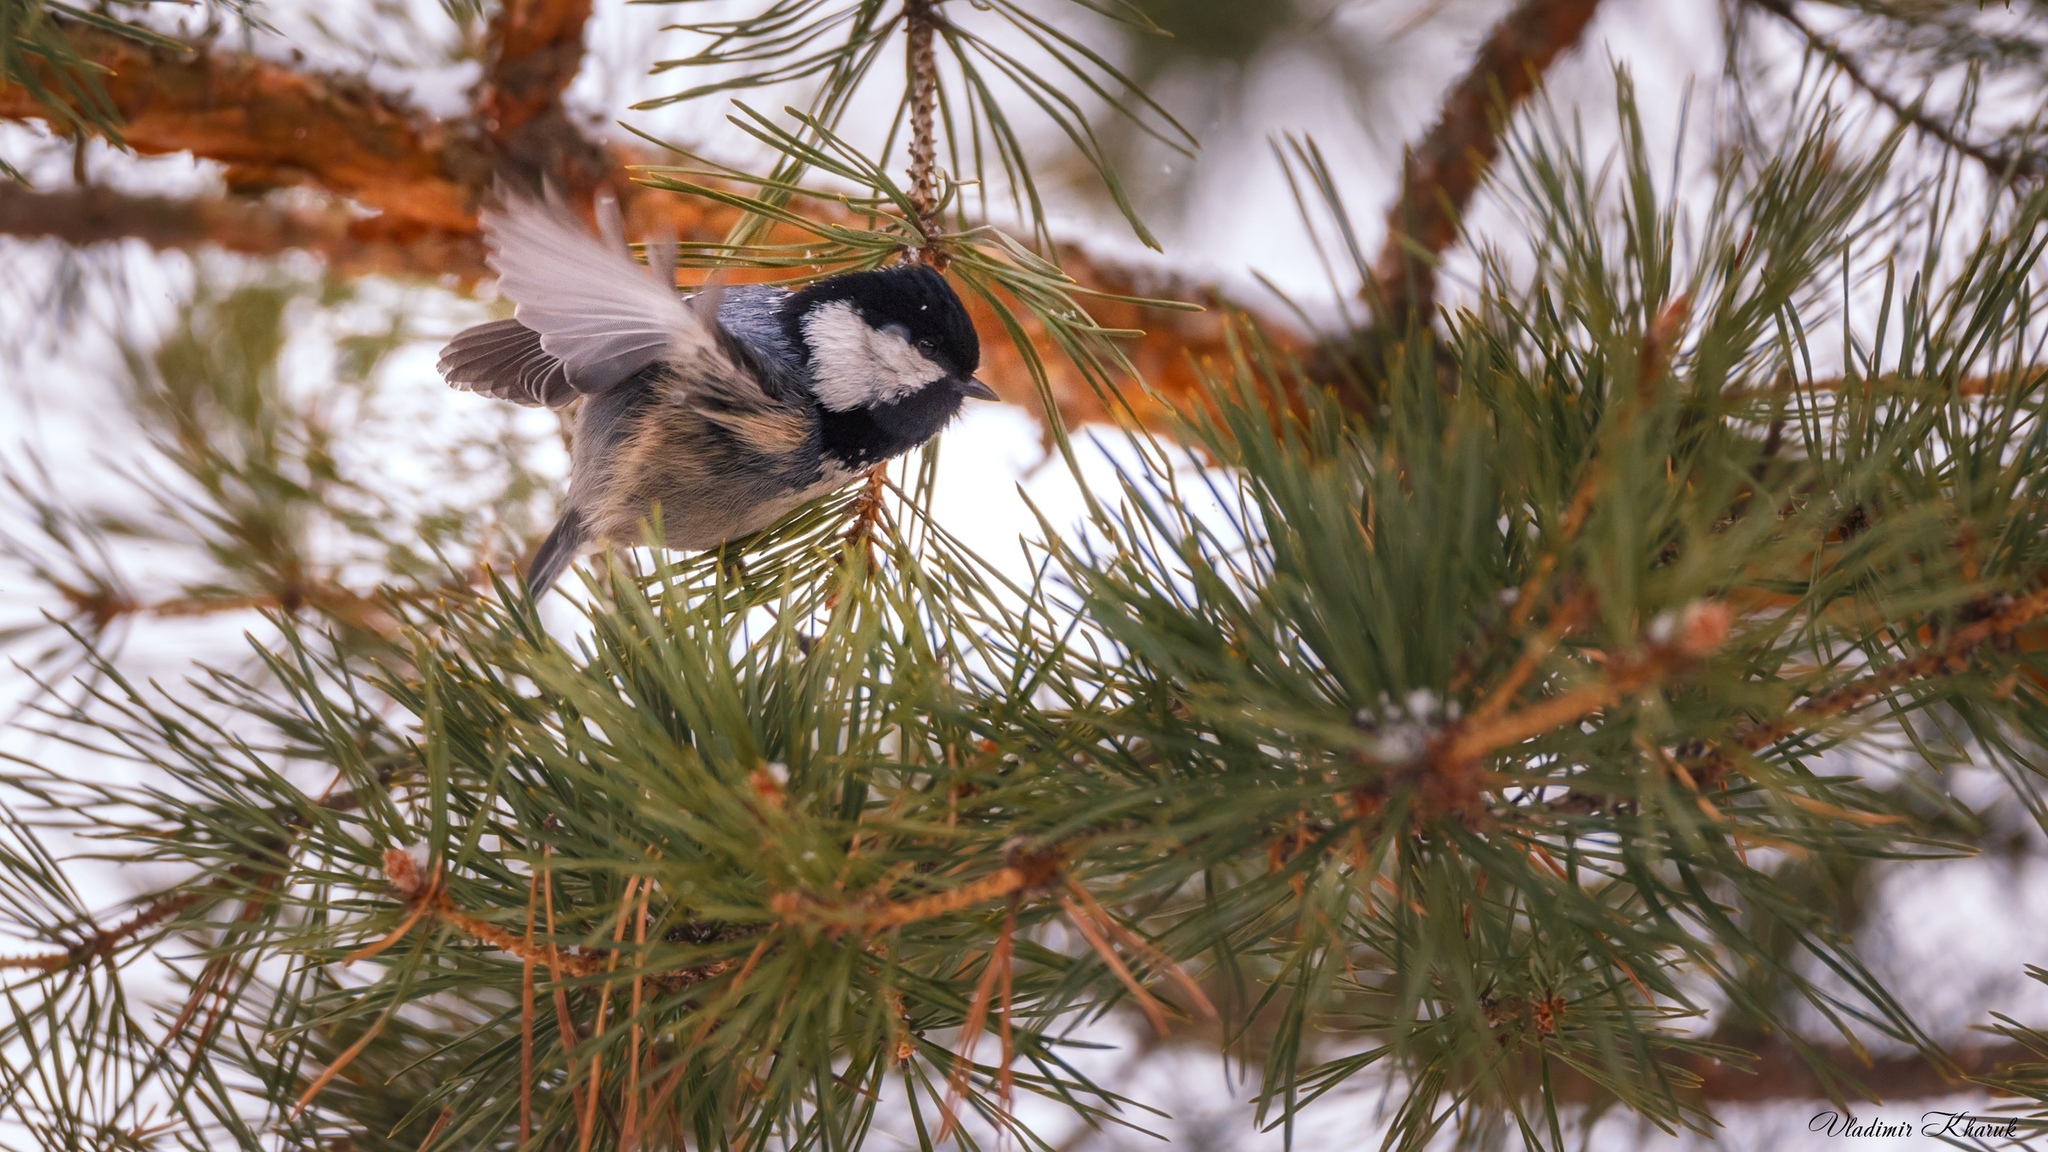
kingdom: Animalia
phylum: Chordata
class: Aves
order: Passeriformes
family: Paridae
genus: Periparus
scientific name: Periparus ater
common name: Coal tit
